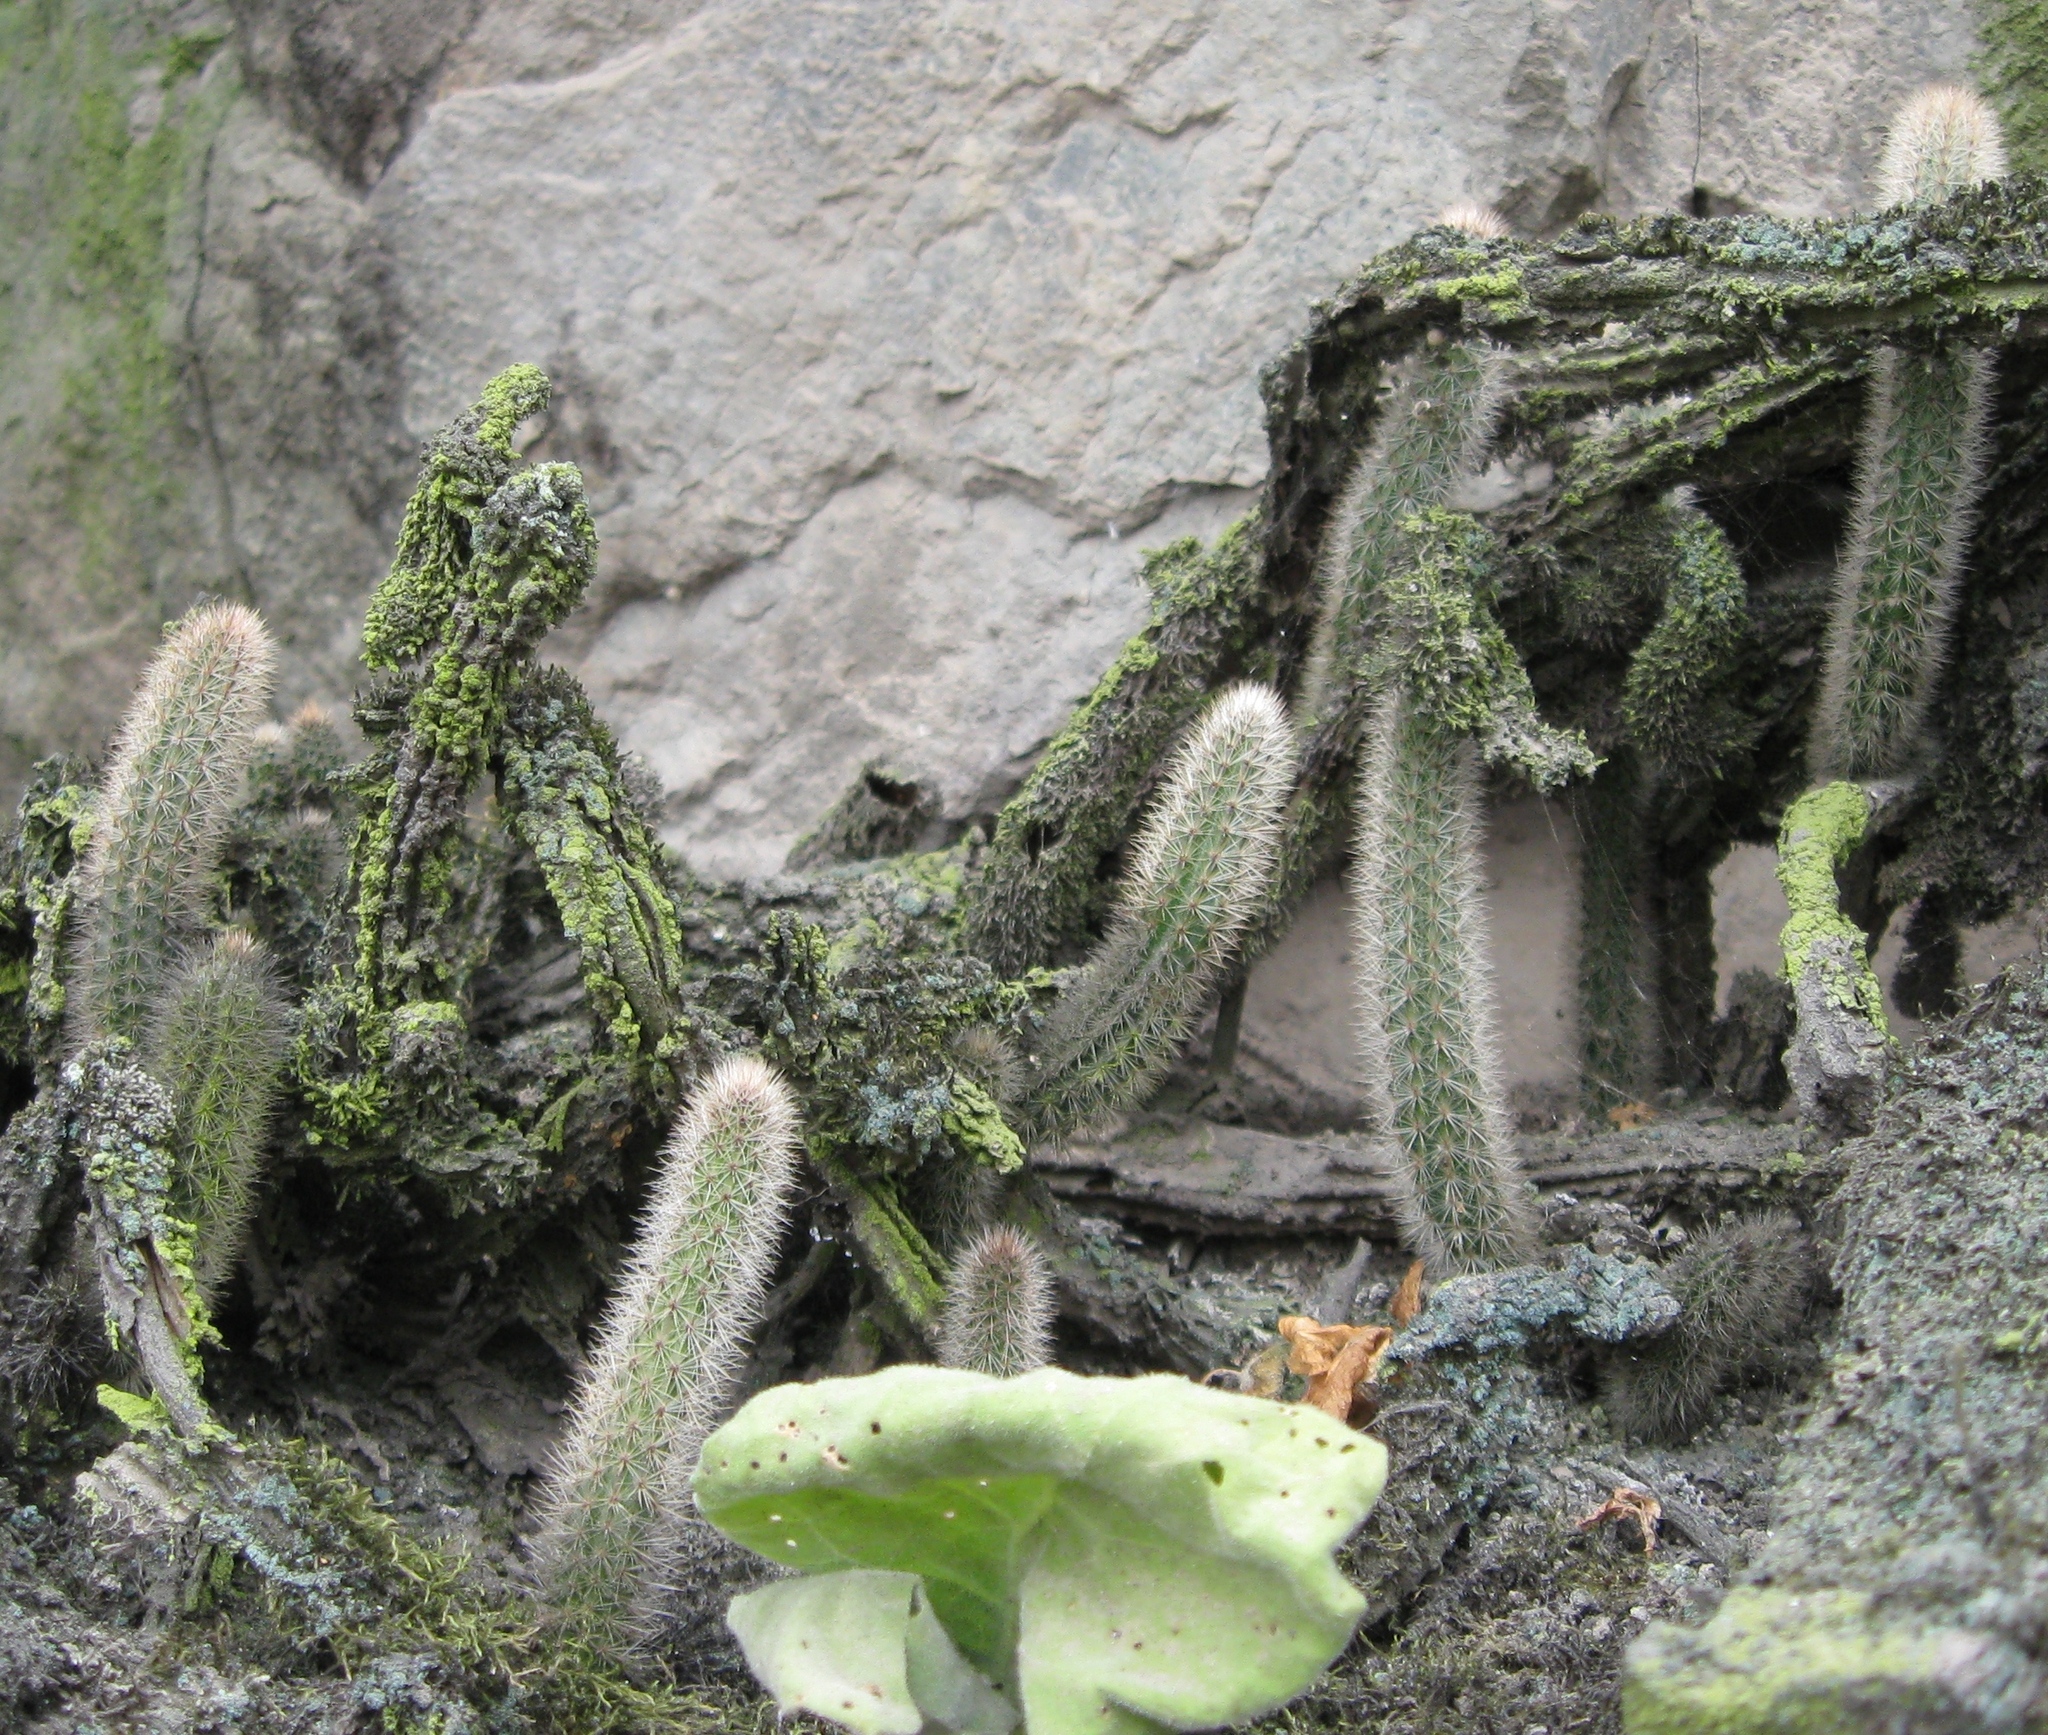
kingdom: Plantae
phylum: Tracheophyta
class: Magnoliopsida
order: Caryophyllales
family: Cactaceae
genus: Corryocactus
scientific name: Corryocactus apiciflorus
